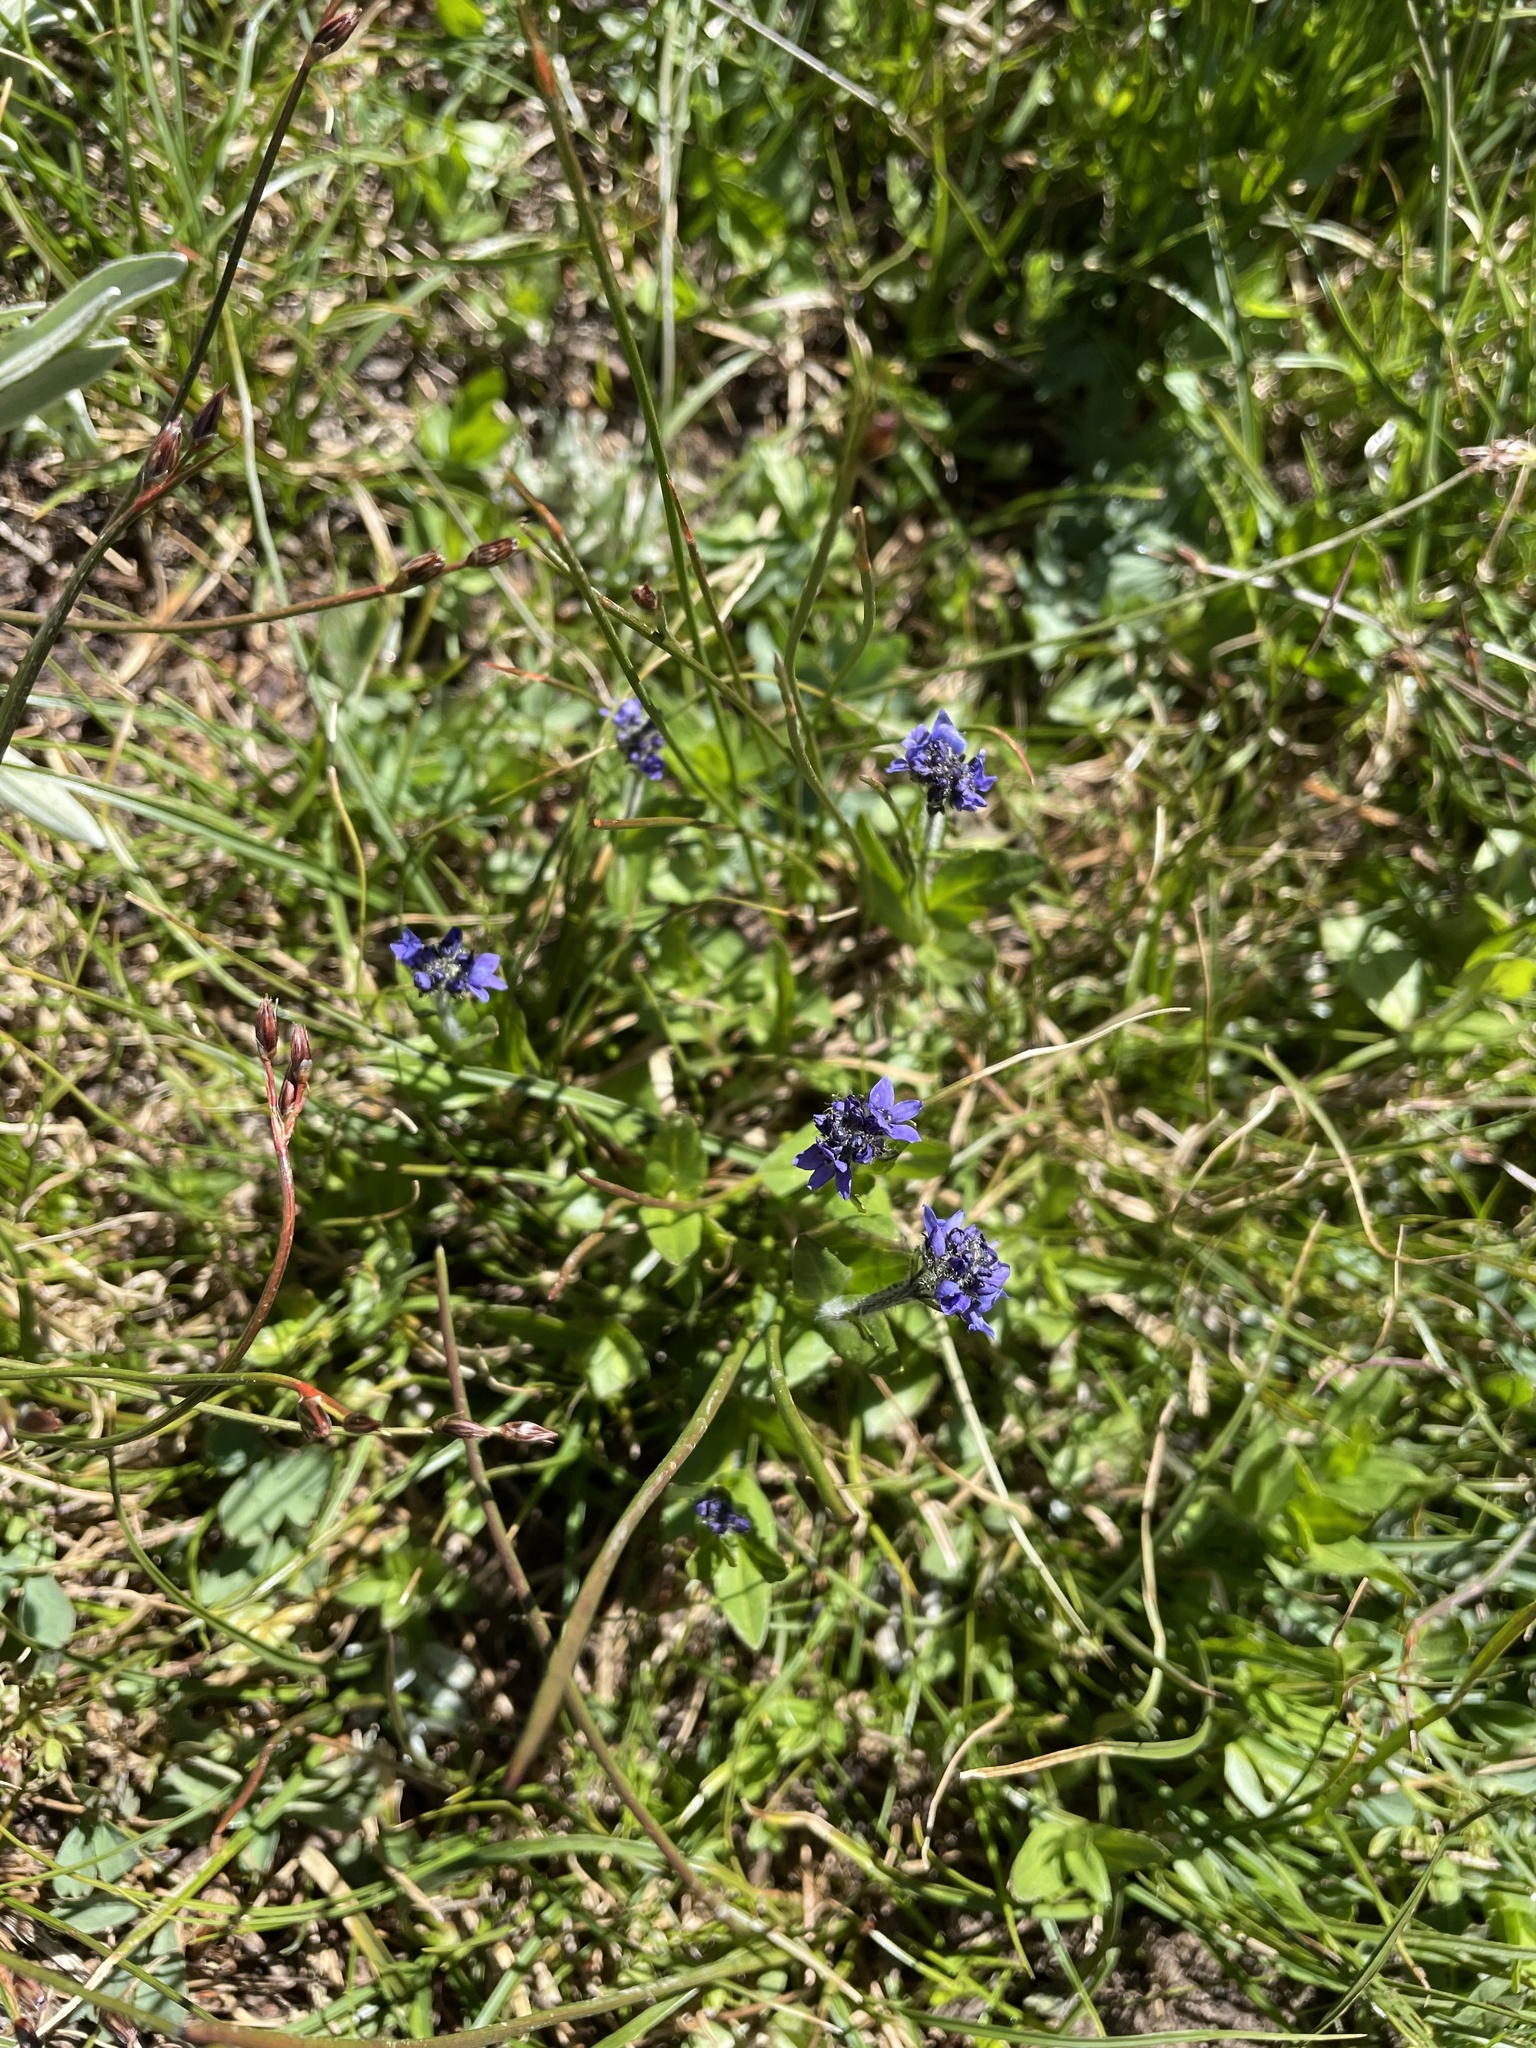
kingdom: Plantae
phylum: Tracheophyta
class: Magnoliopsida
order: Lamiales
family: Plantaginaceae
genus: Veronica
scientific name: Veronica wormskjoldii
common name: American alpine speedwell
